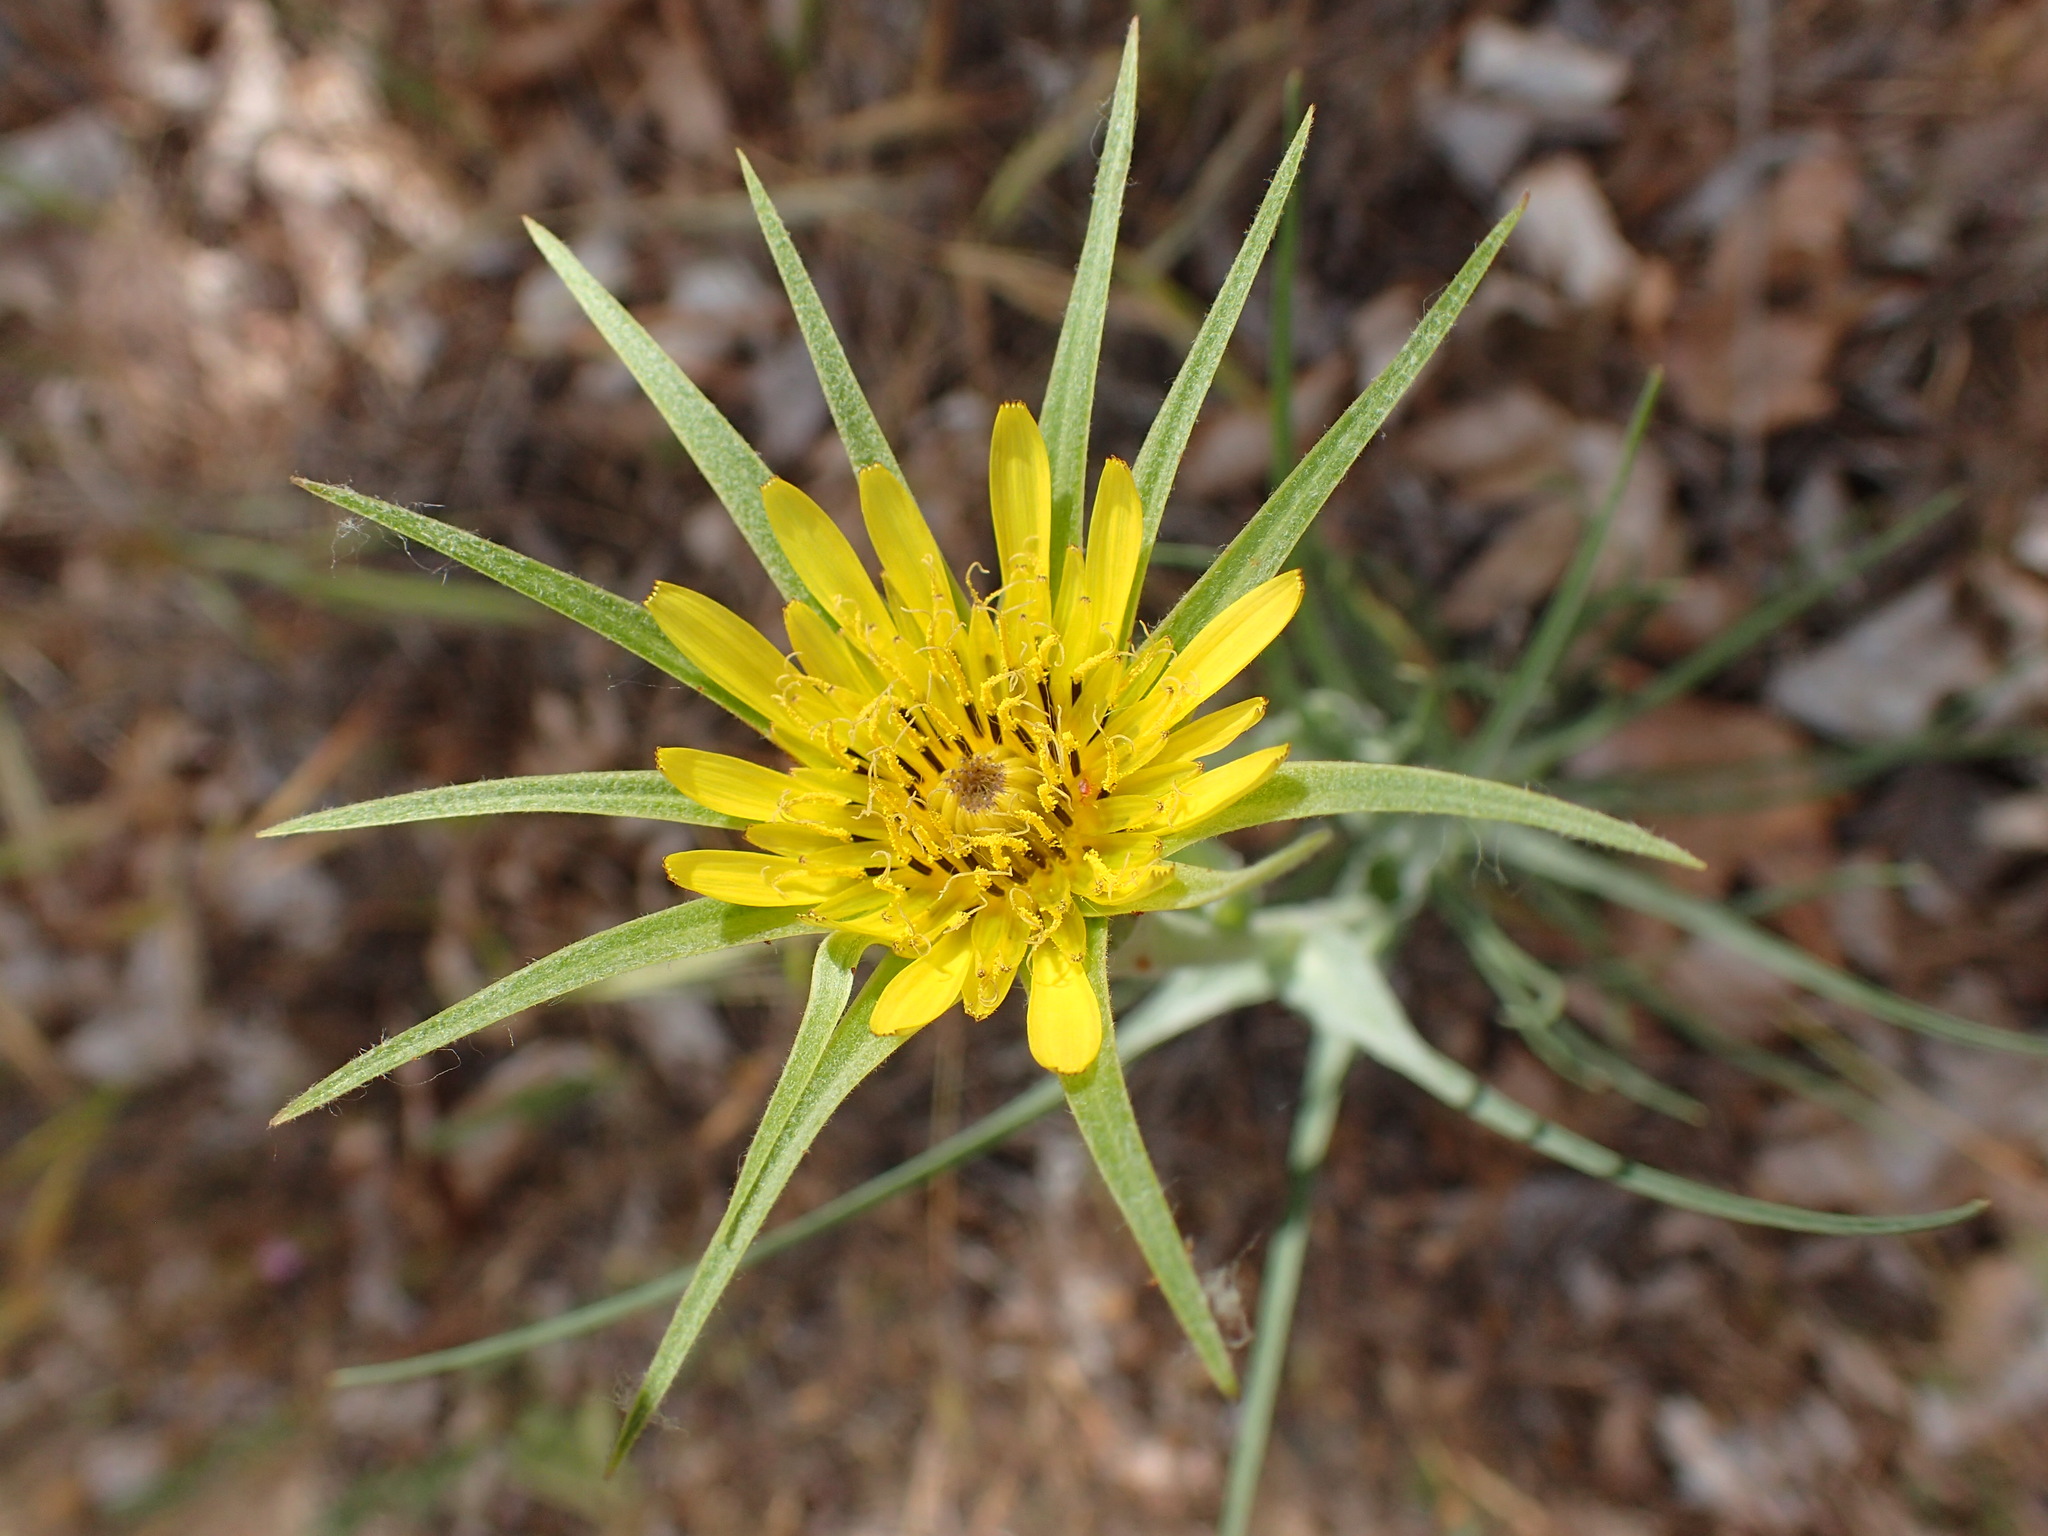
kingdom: Plantae
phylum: Tracheophyta
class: Magnoliopsida
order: Asterales
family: Asteraceae
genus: Tragopogon
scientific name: Tragopogon dubius
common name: Yellow salsify
